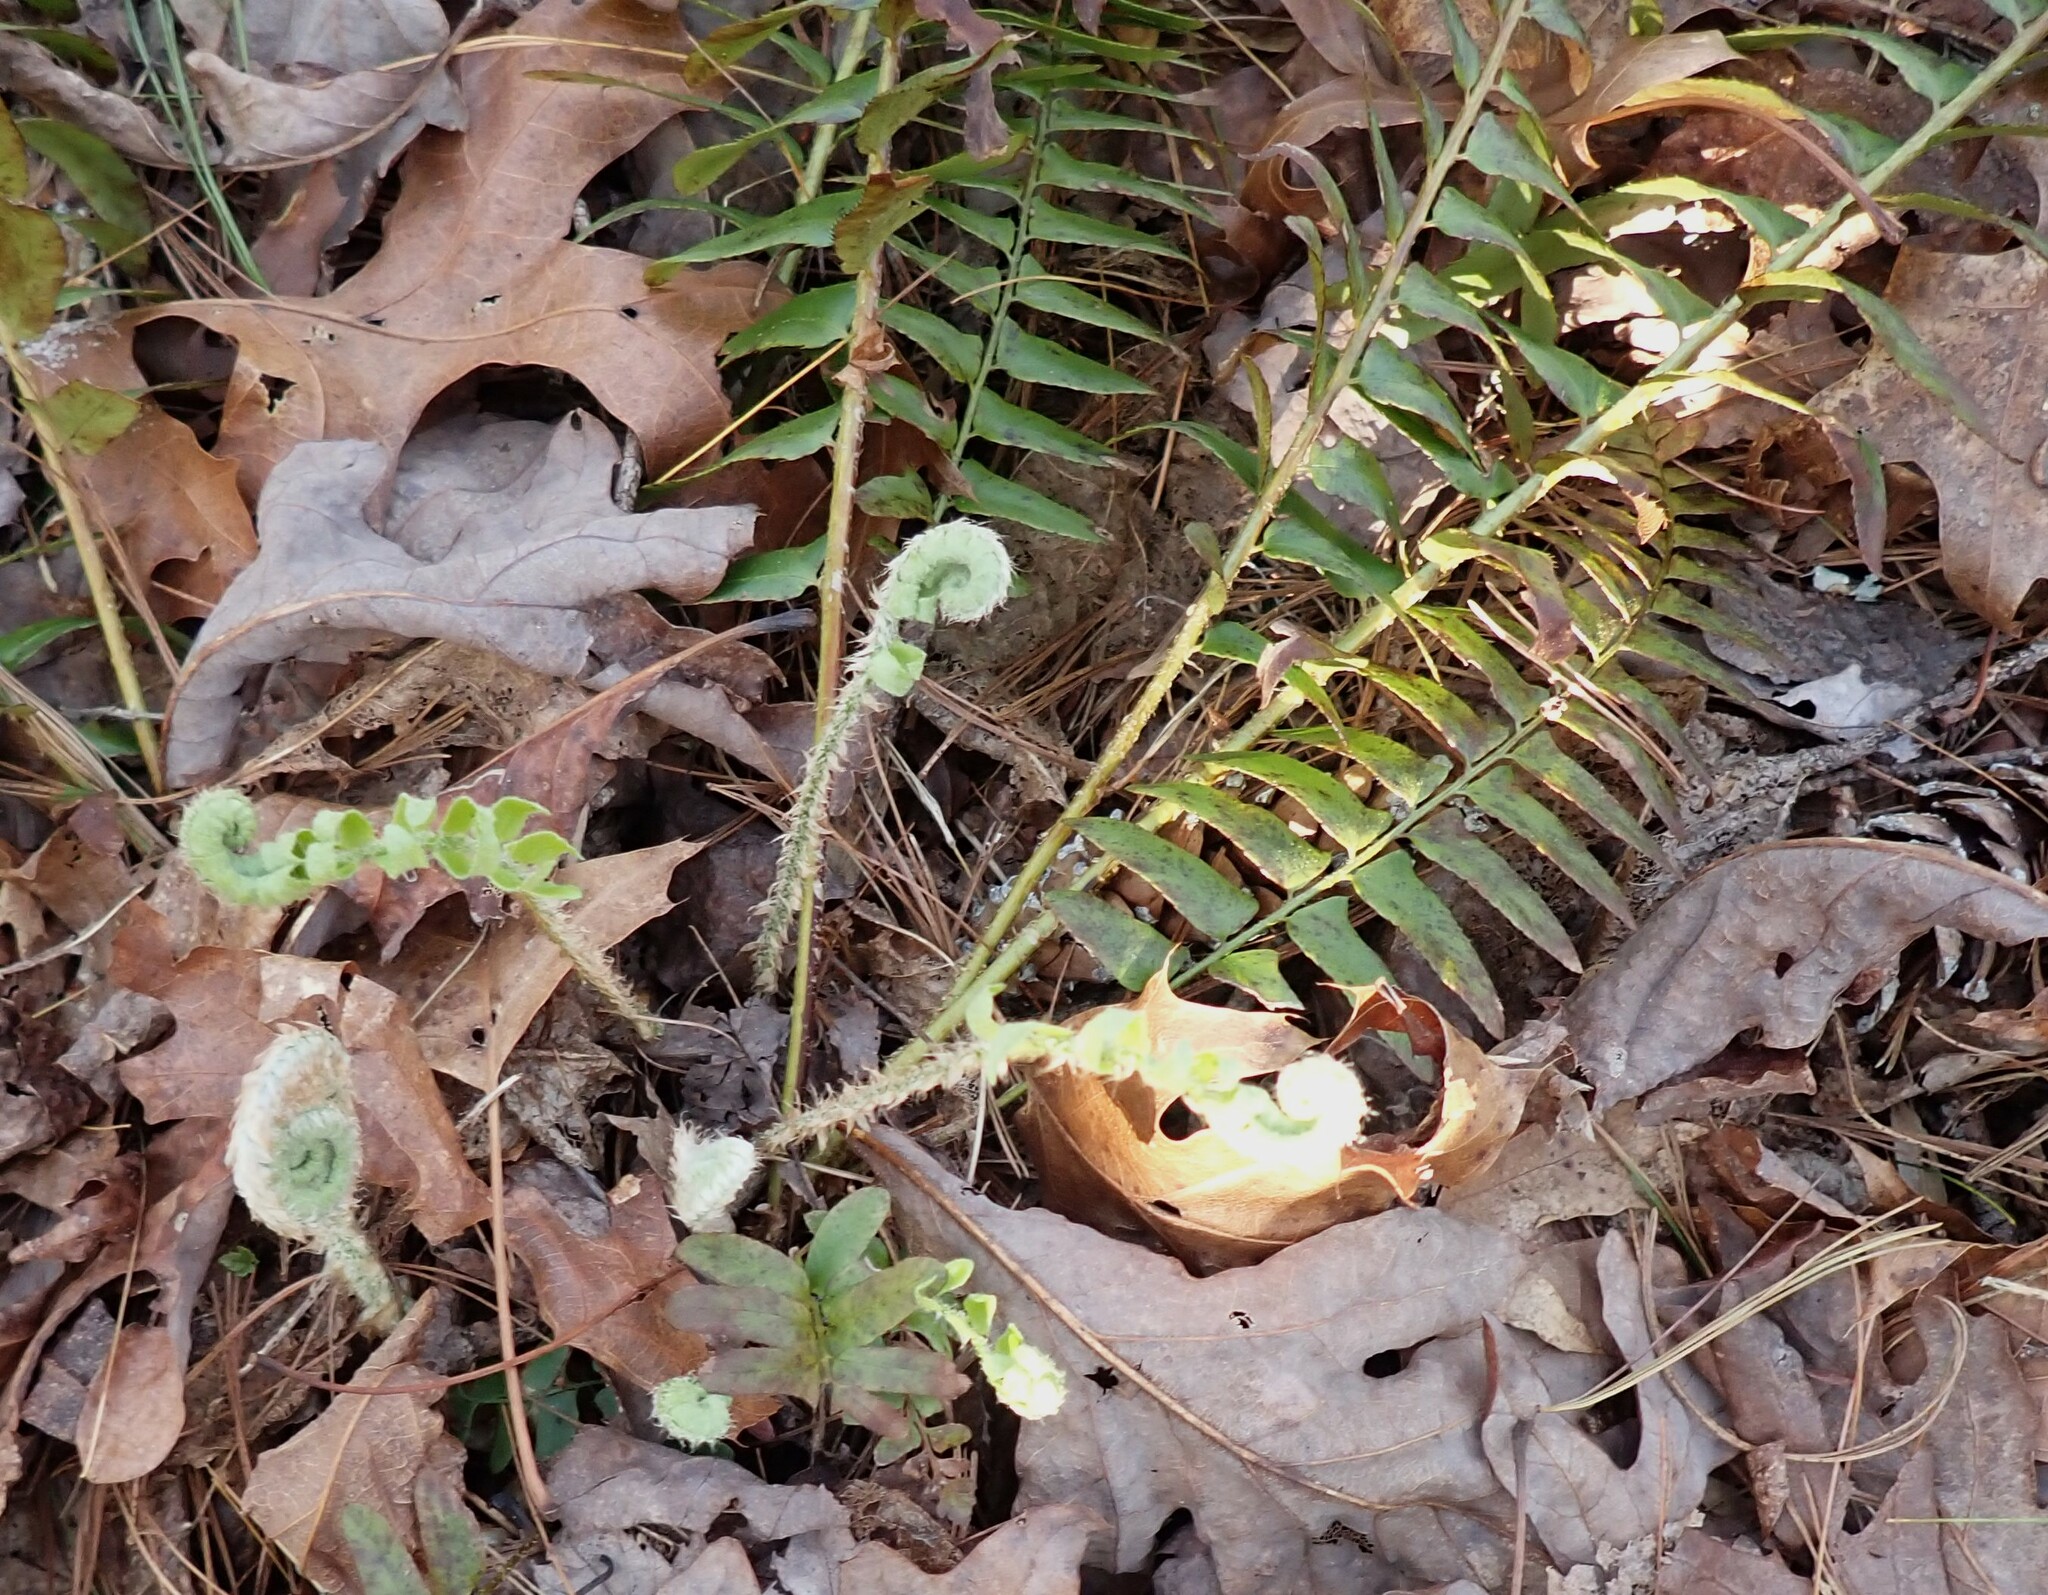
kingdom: Plantae
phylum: Tracheophyta
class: Polypodiopsida
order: Polypodiales
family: Dryopteridaceae
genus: Polystichum
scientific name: Polystichum acrostichoides
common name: Christmas fern
